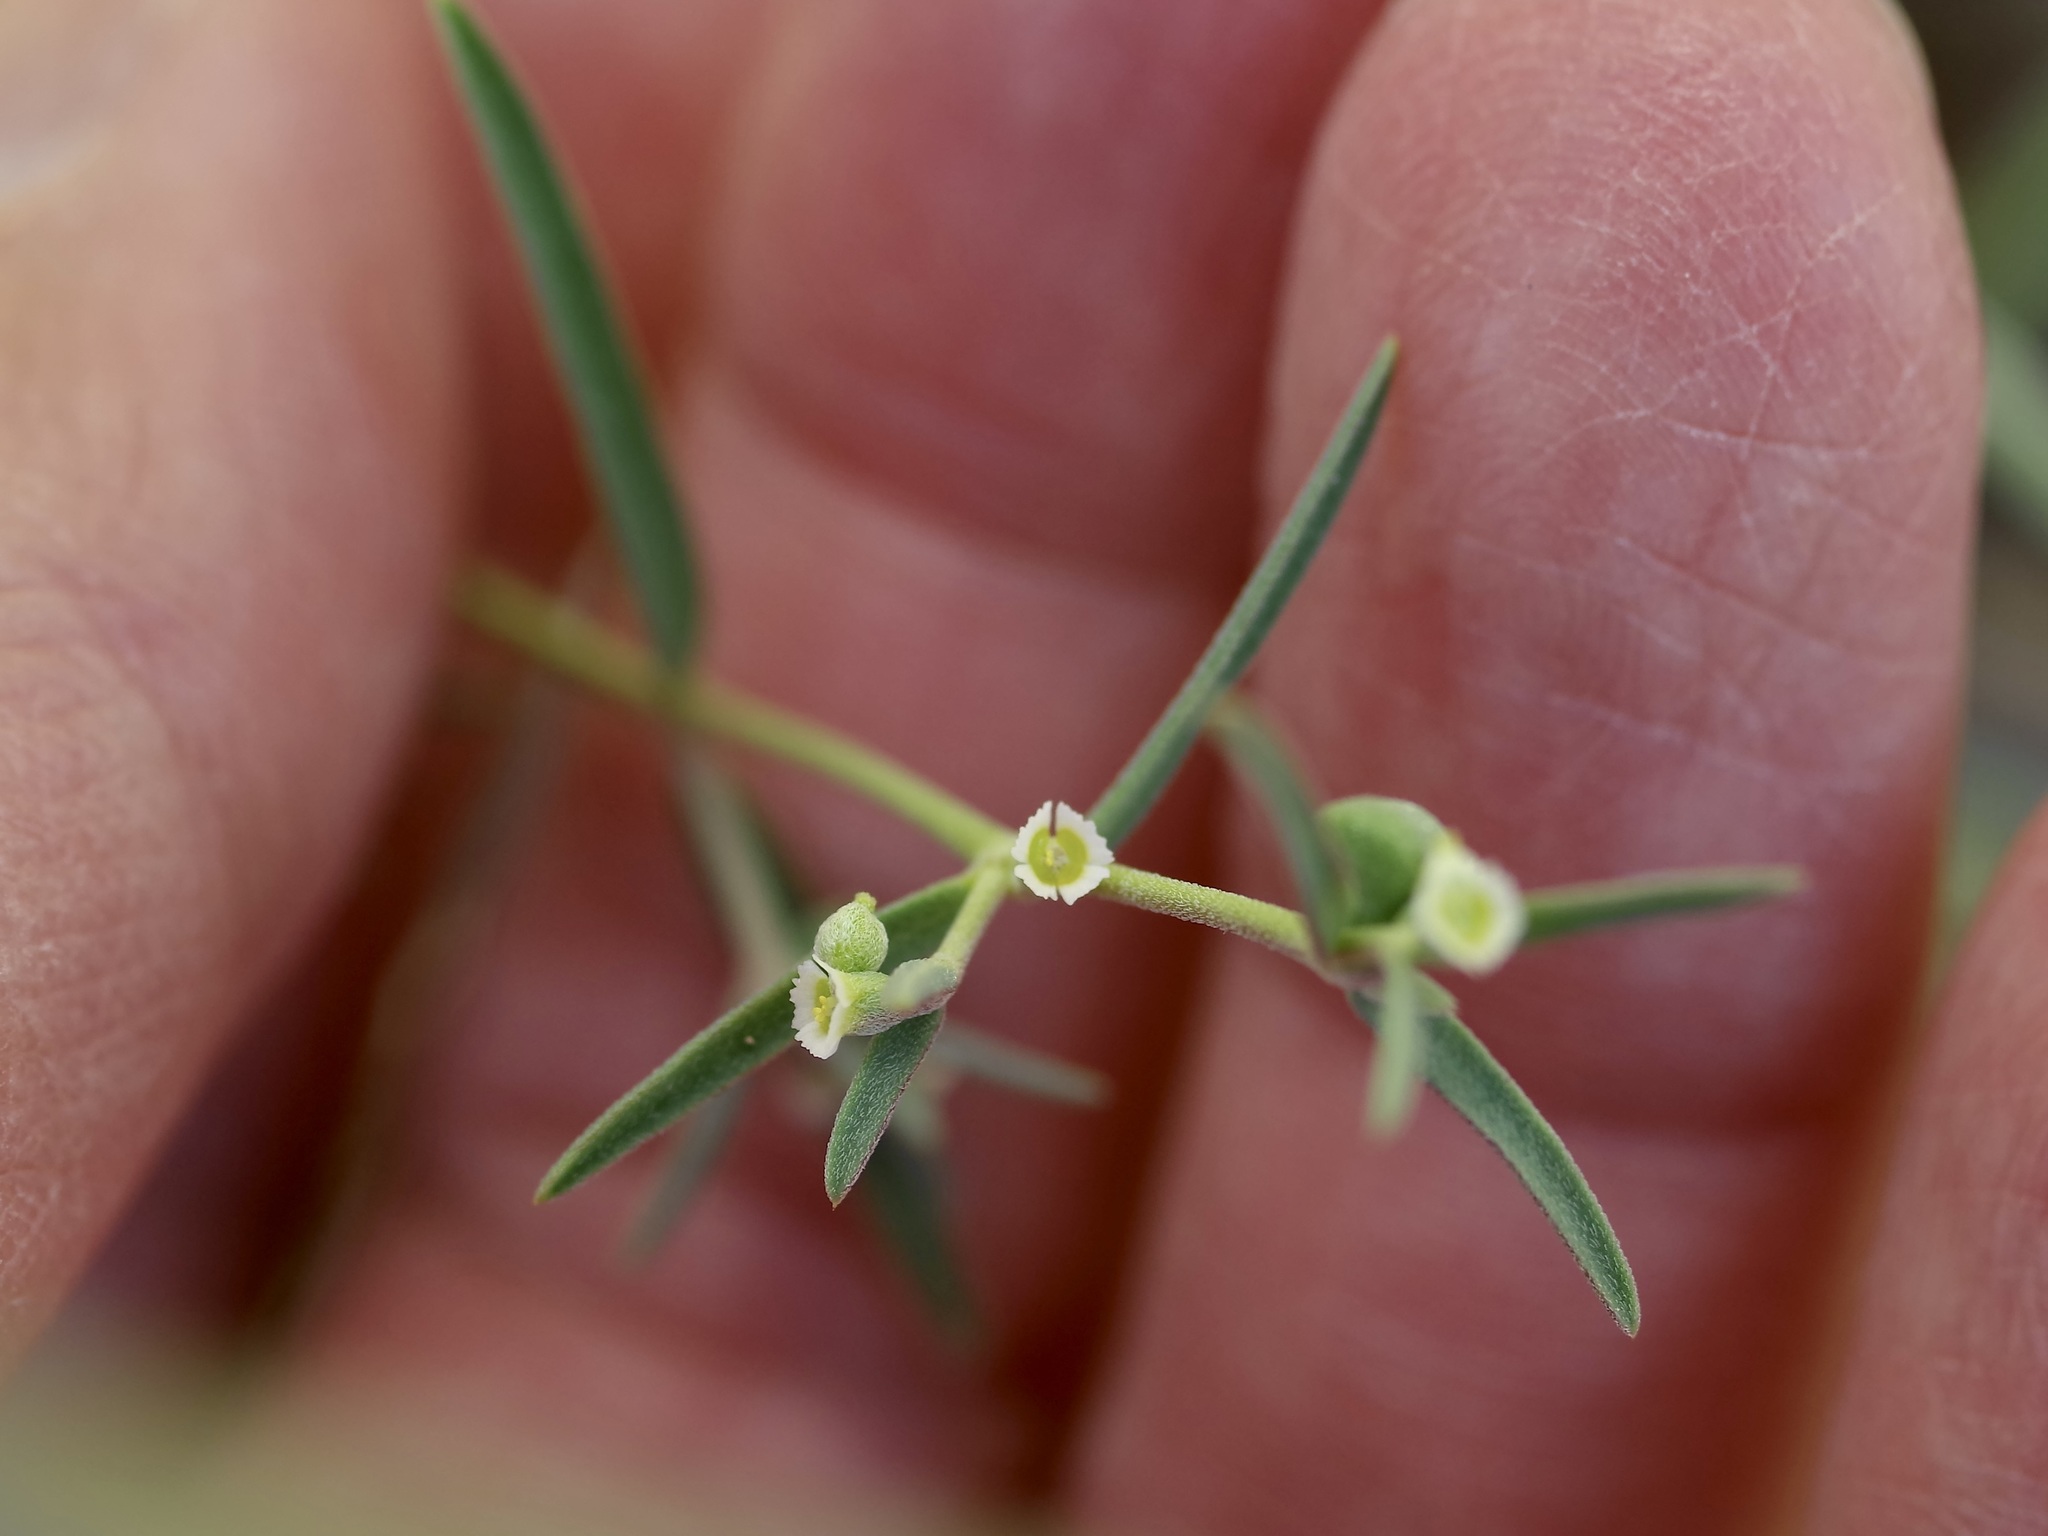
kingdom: Plantae
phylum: Tracheophyta
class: Magnoliopsida
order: Malpighiales
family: Euphorbiaceae
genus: Euphorbia
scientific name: Euphorbia angusta
